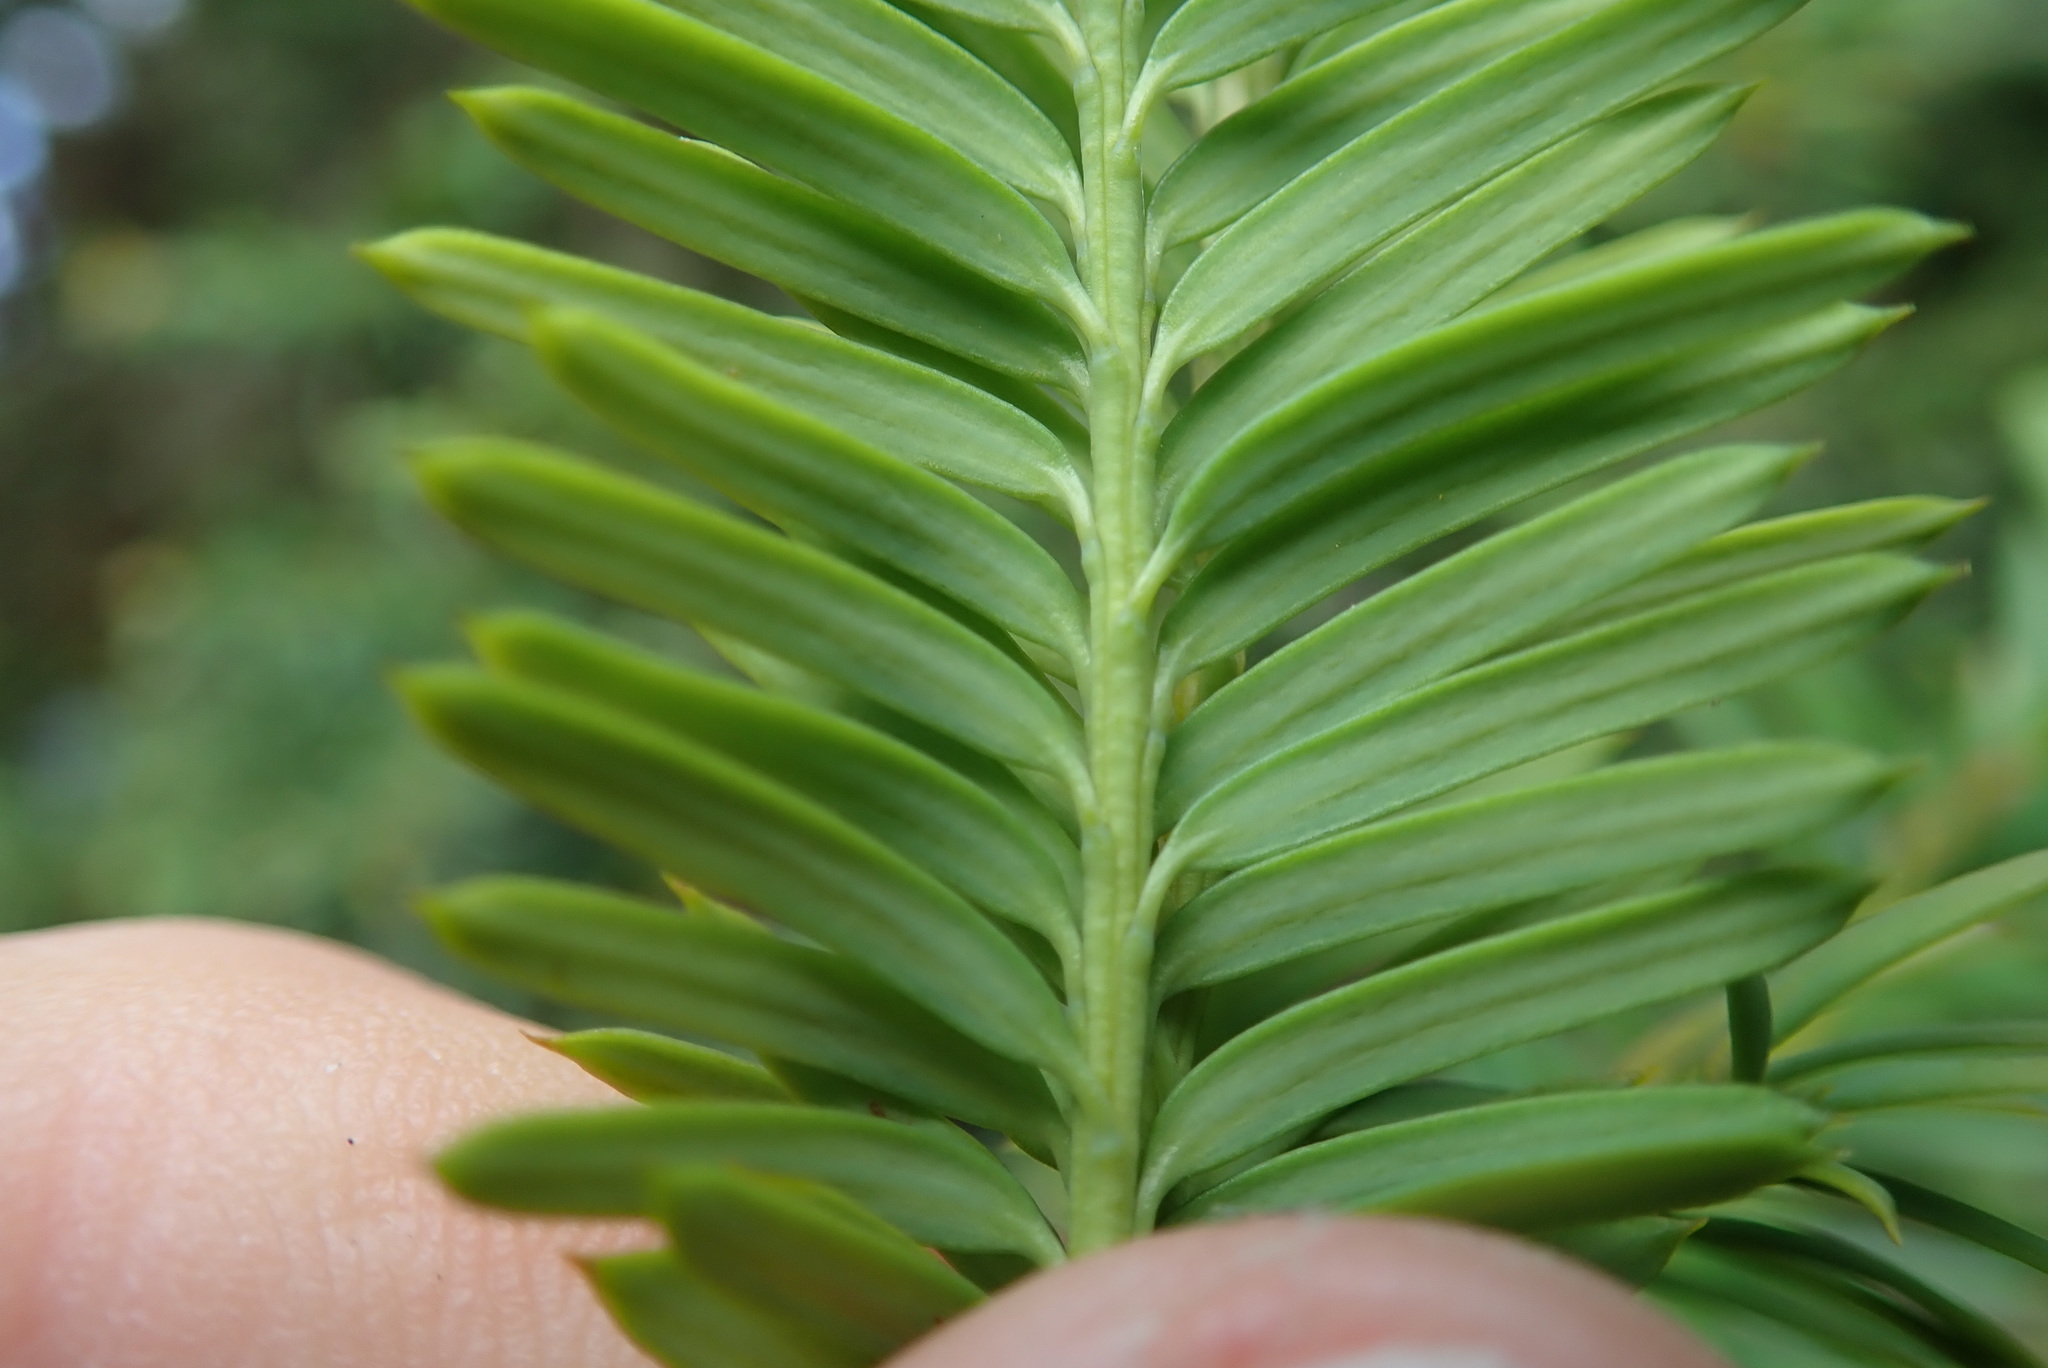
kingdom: Plantae
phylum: Tracheophyta
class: Pinopsida
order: Pinales
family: Taxaceae
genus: Taxus
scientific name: Taxus brevifolia
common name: Pacific yew
